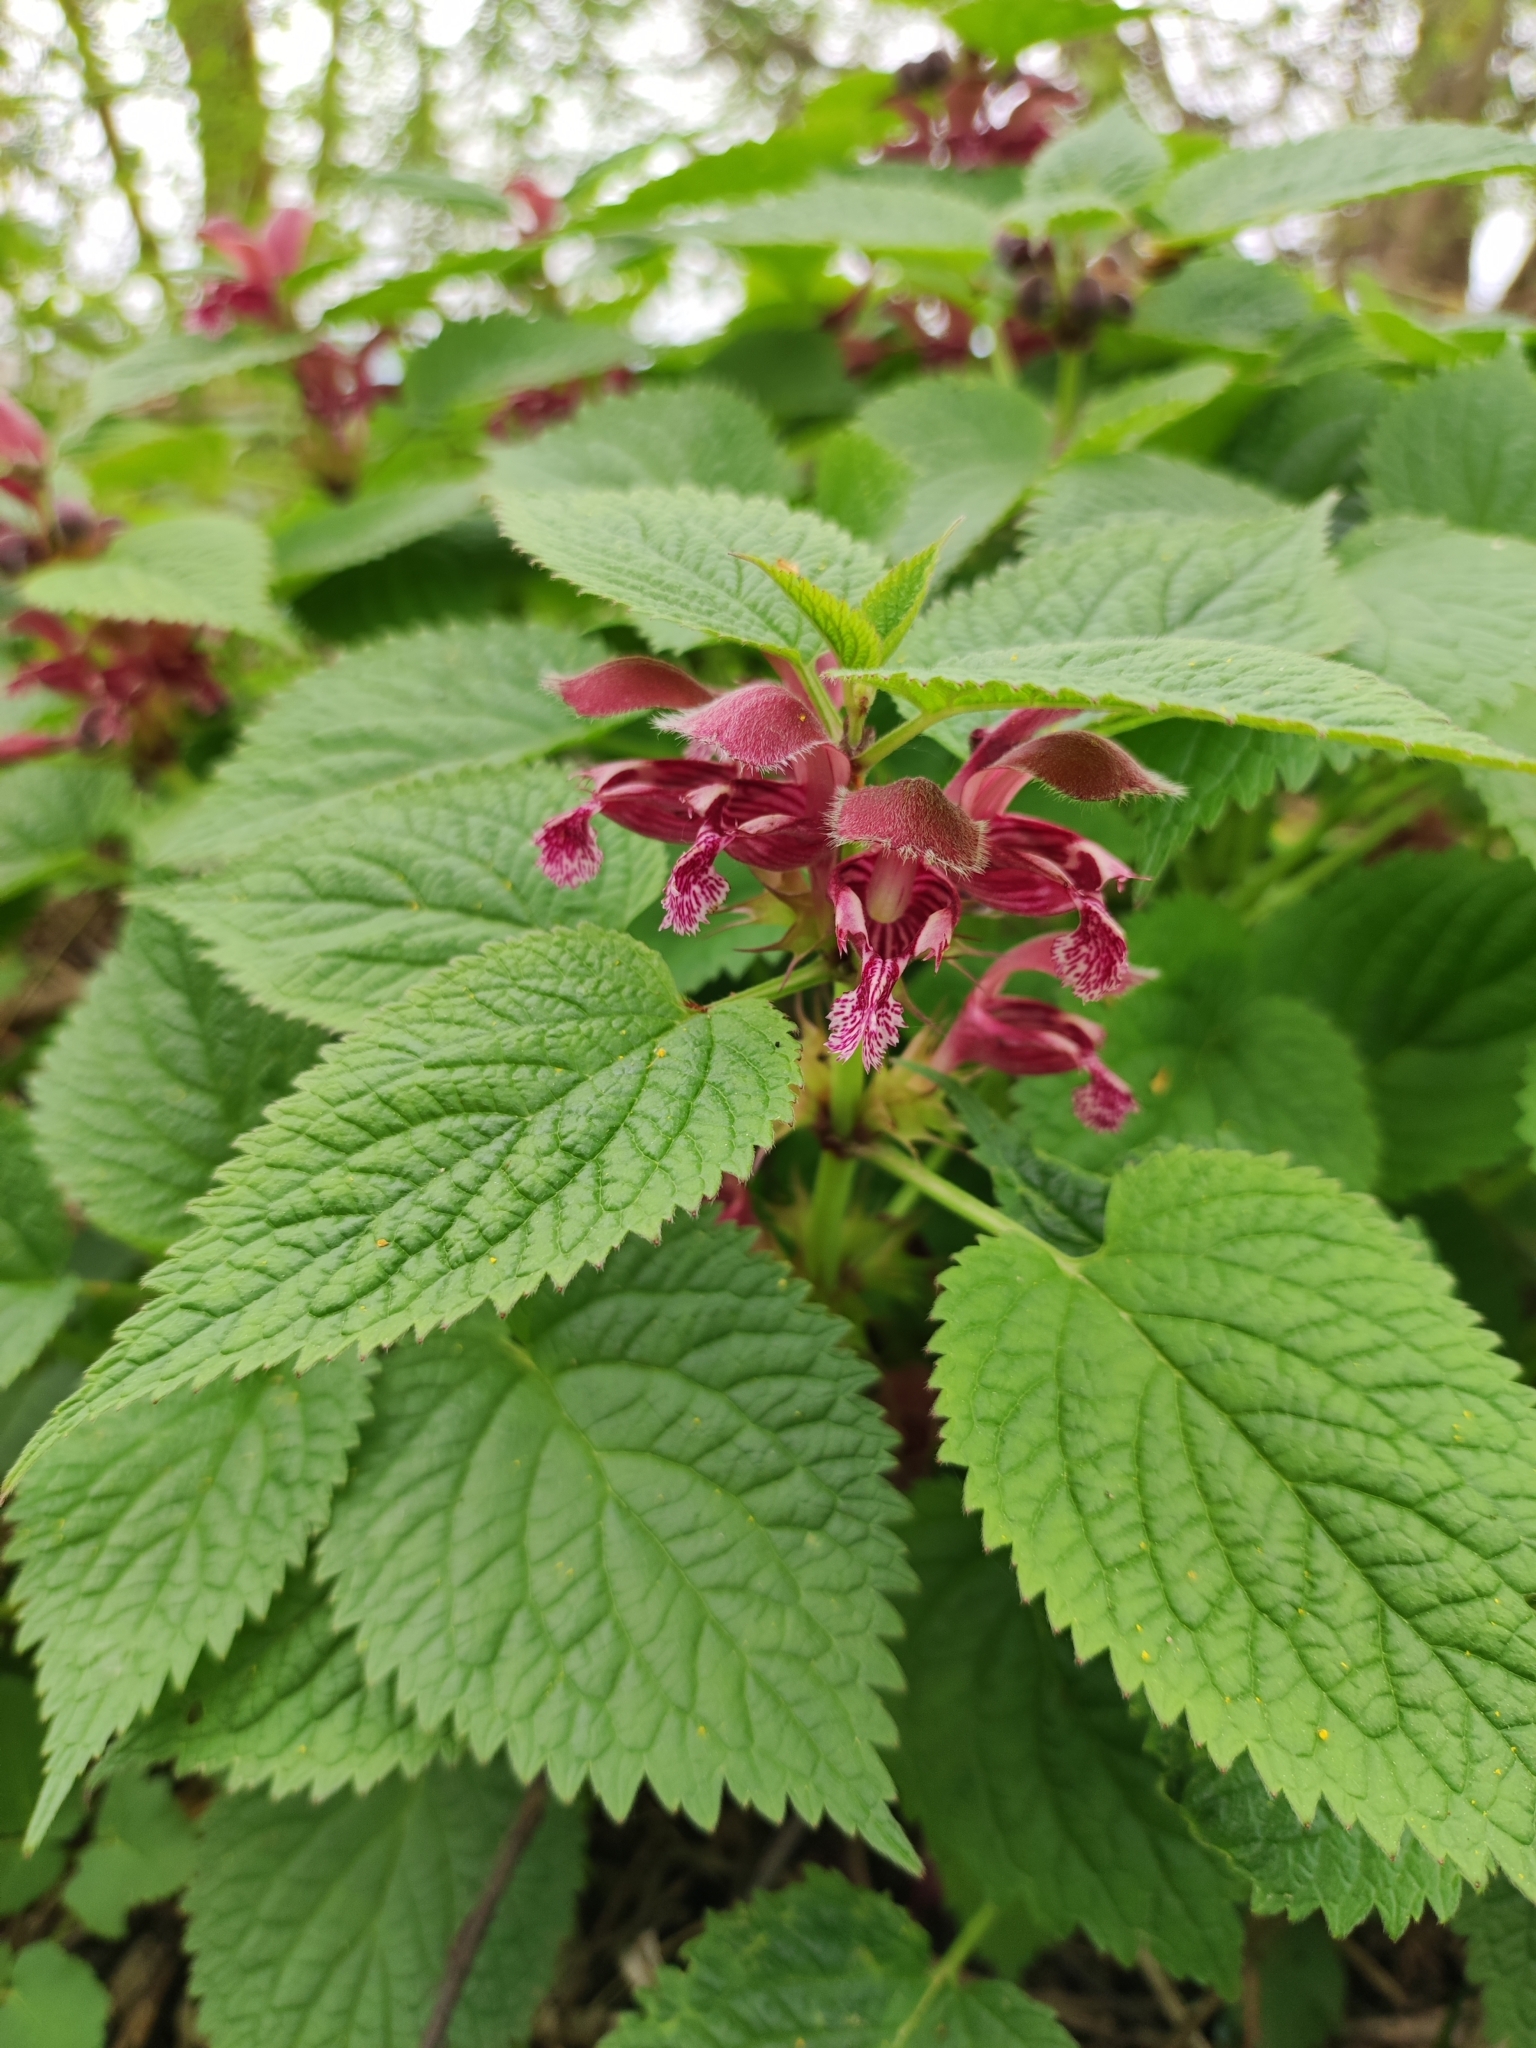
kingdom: Plantae
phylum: Tracheophyta
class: Magnoliopsida
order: Lamiales
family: Lamiaceae
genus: Lamium
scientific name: Lamium orvala
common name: Balm-leaved archangel
